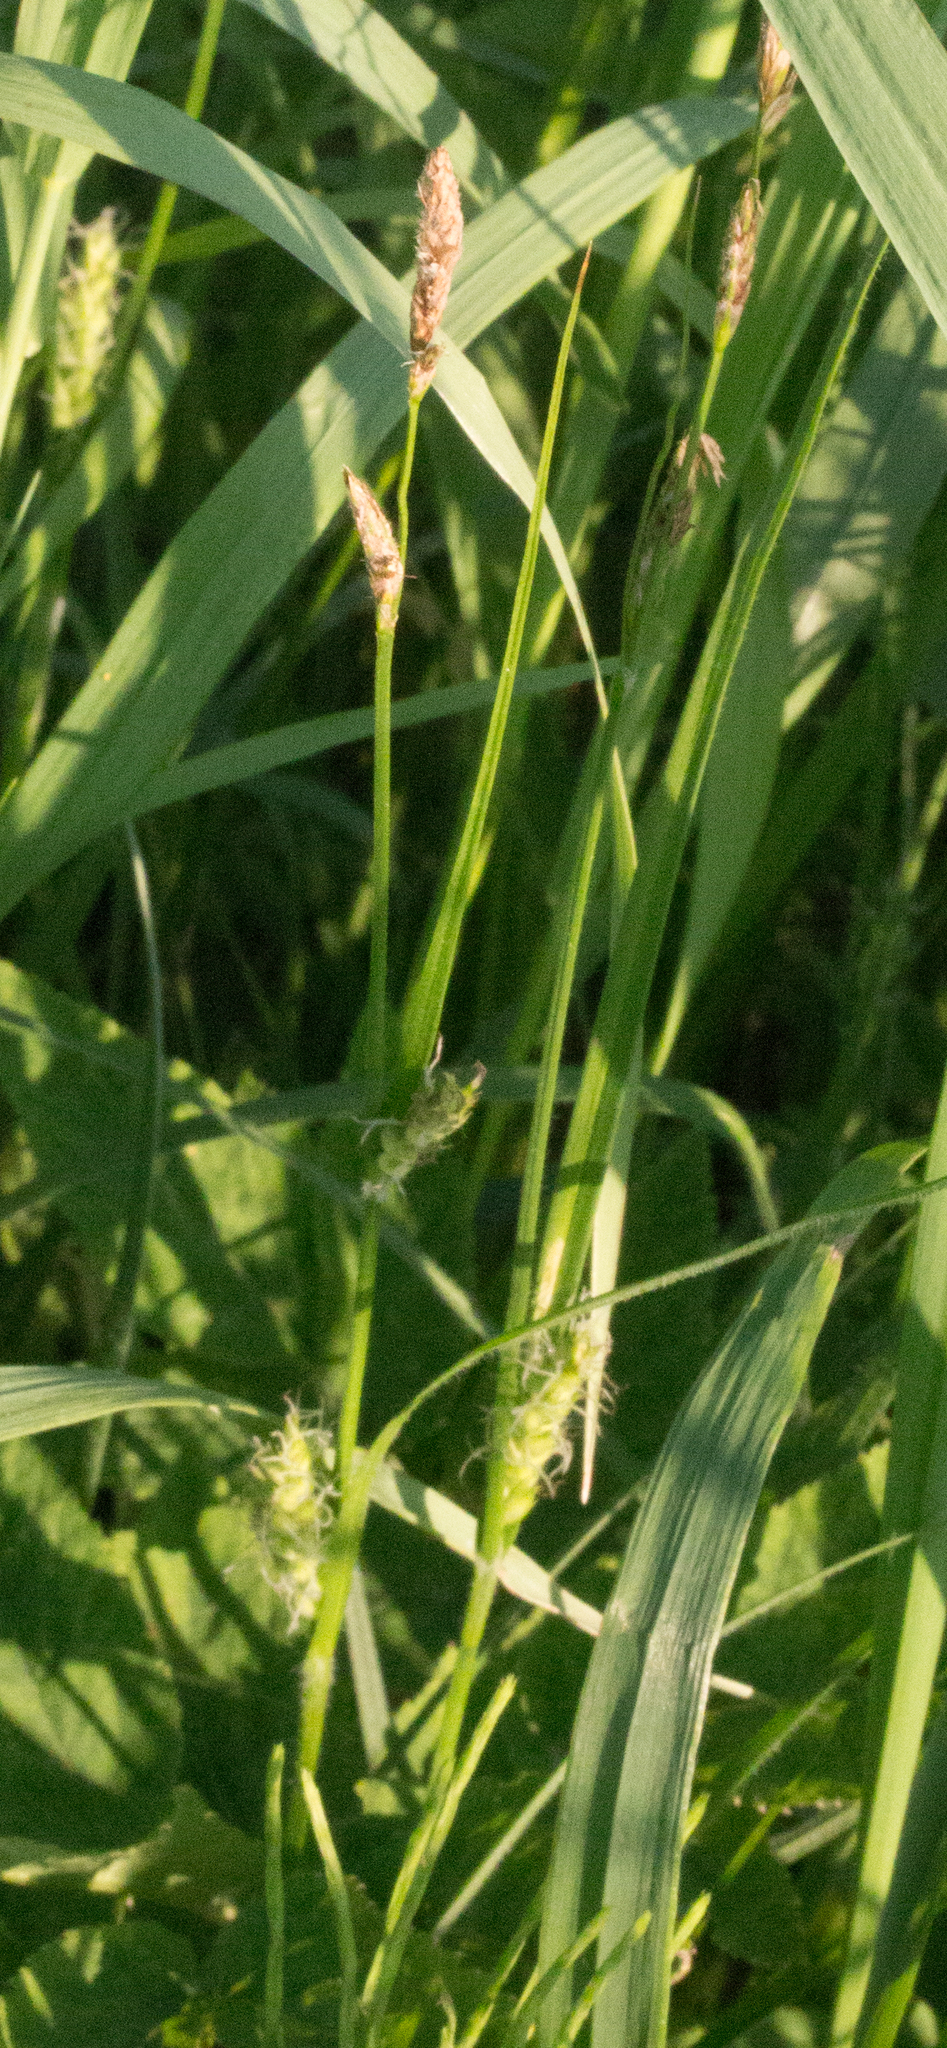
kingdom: Plantae
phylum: Tracheophyta
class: Liliopsida
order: Poales
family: Cyperaceae
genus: Carex
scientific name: Carex hirta
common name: Hairy sedge
